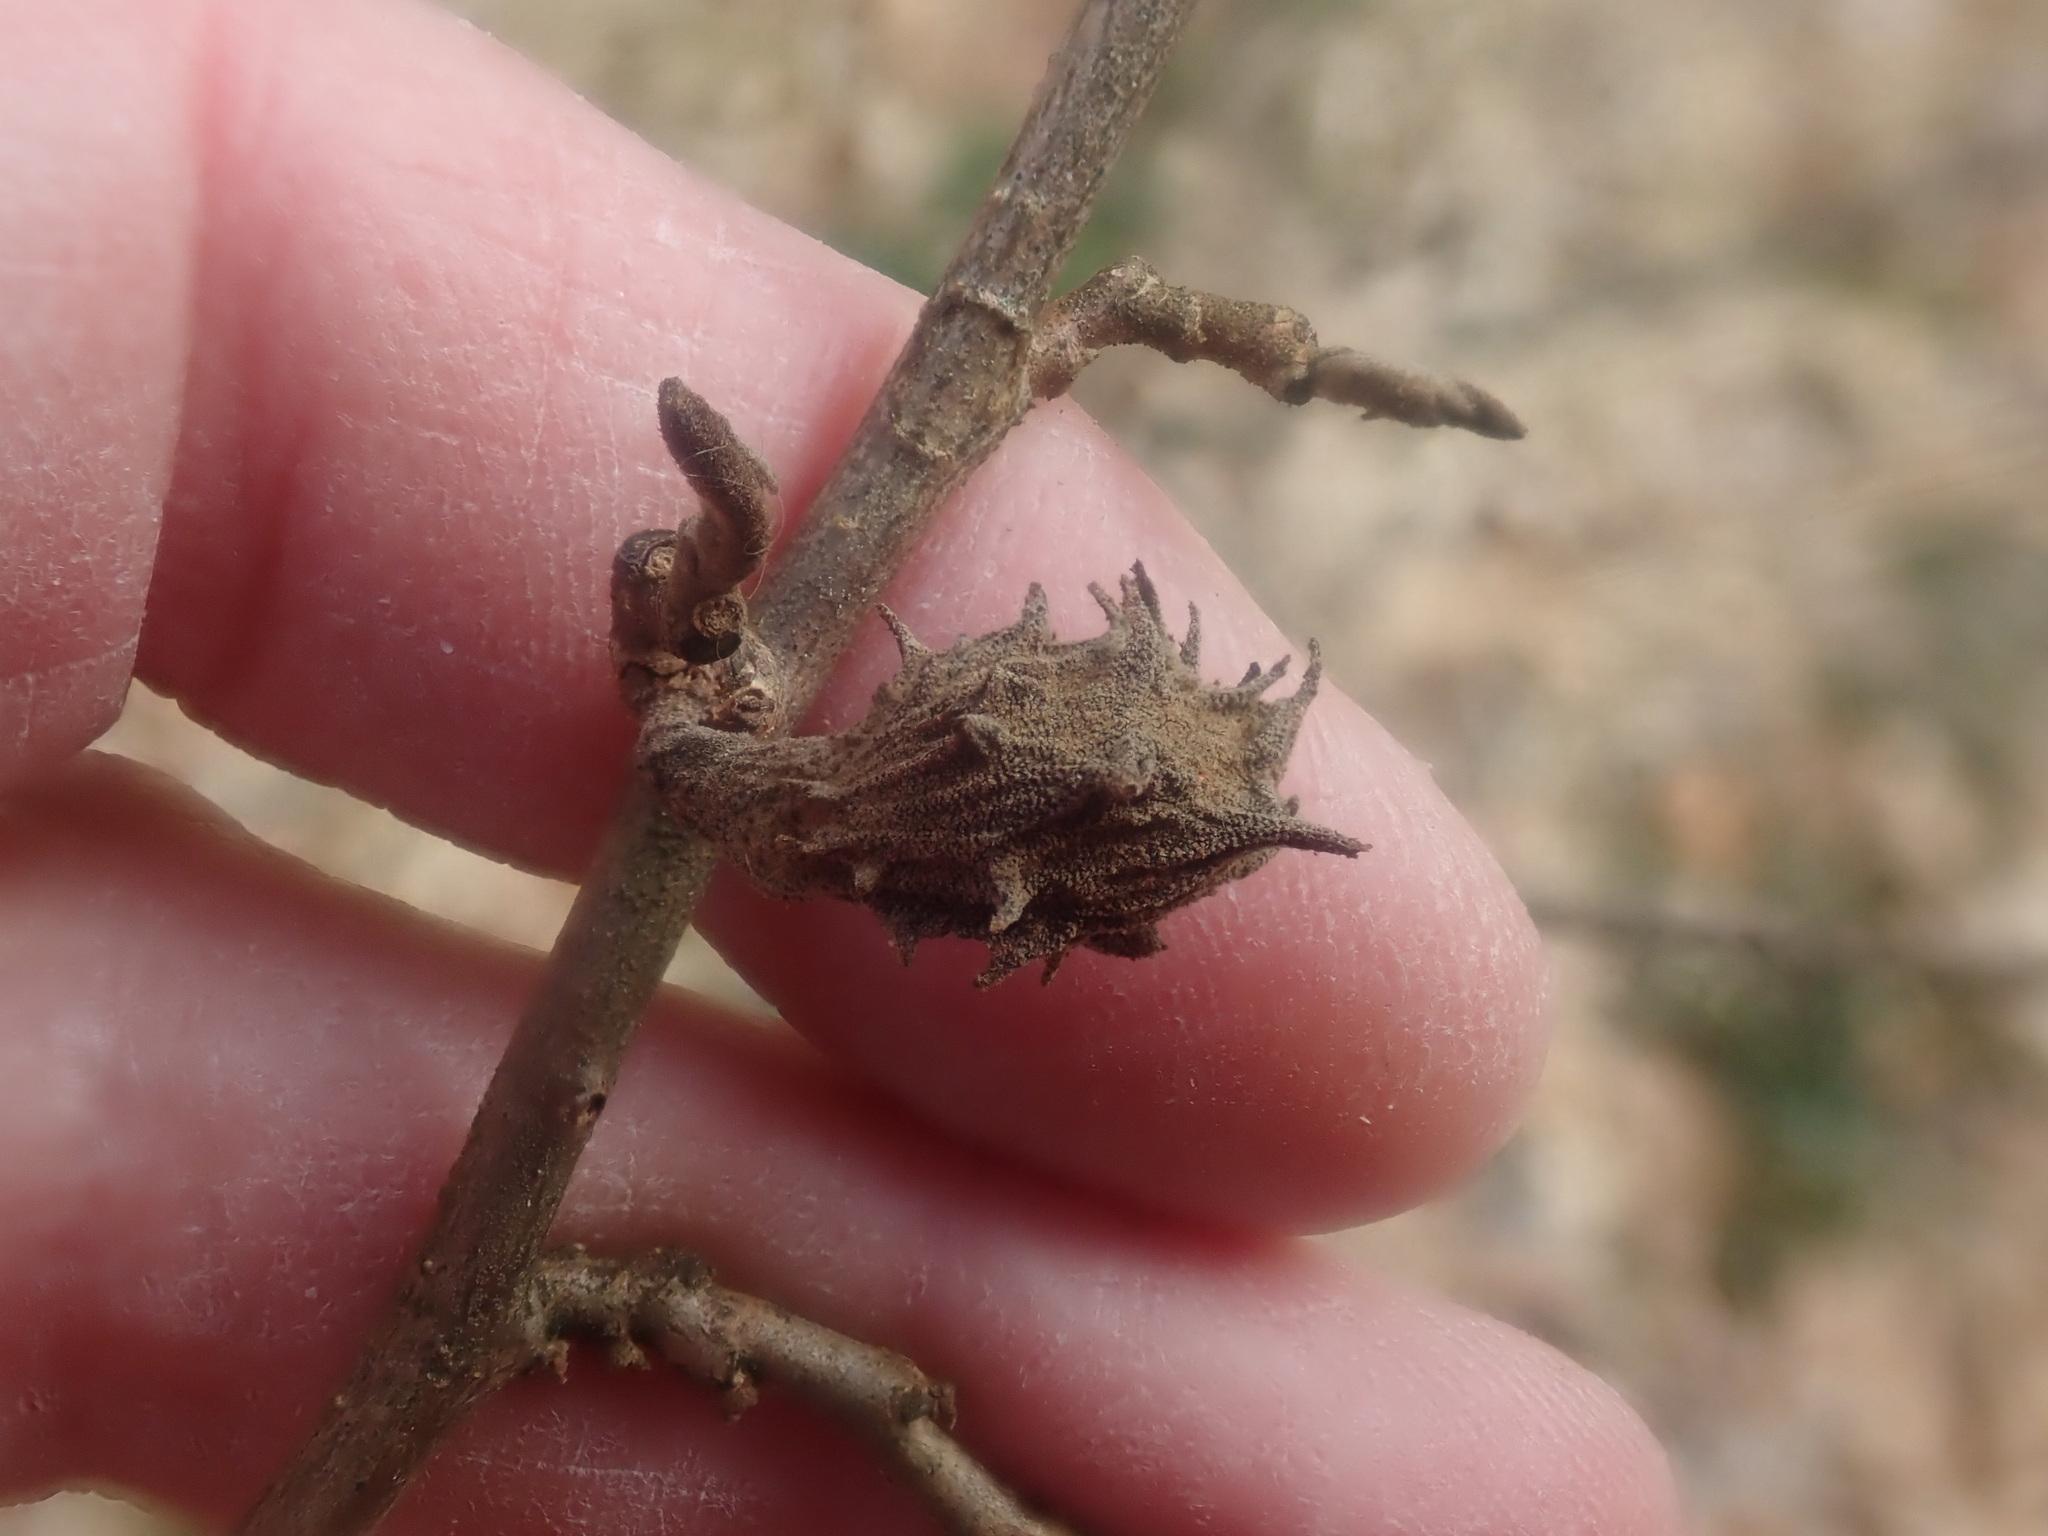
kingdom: Animalia
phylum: Arthropoda
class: Insecta
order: Hemiptera
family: Aphididae
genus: Hamamelistes
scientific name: Hamamelistes spinosus
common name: Witch hazel gall aphid
